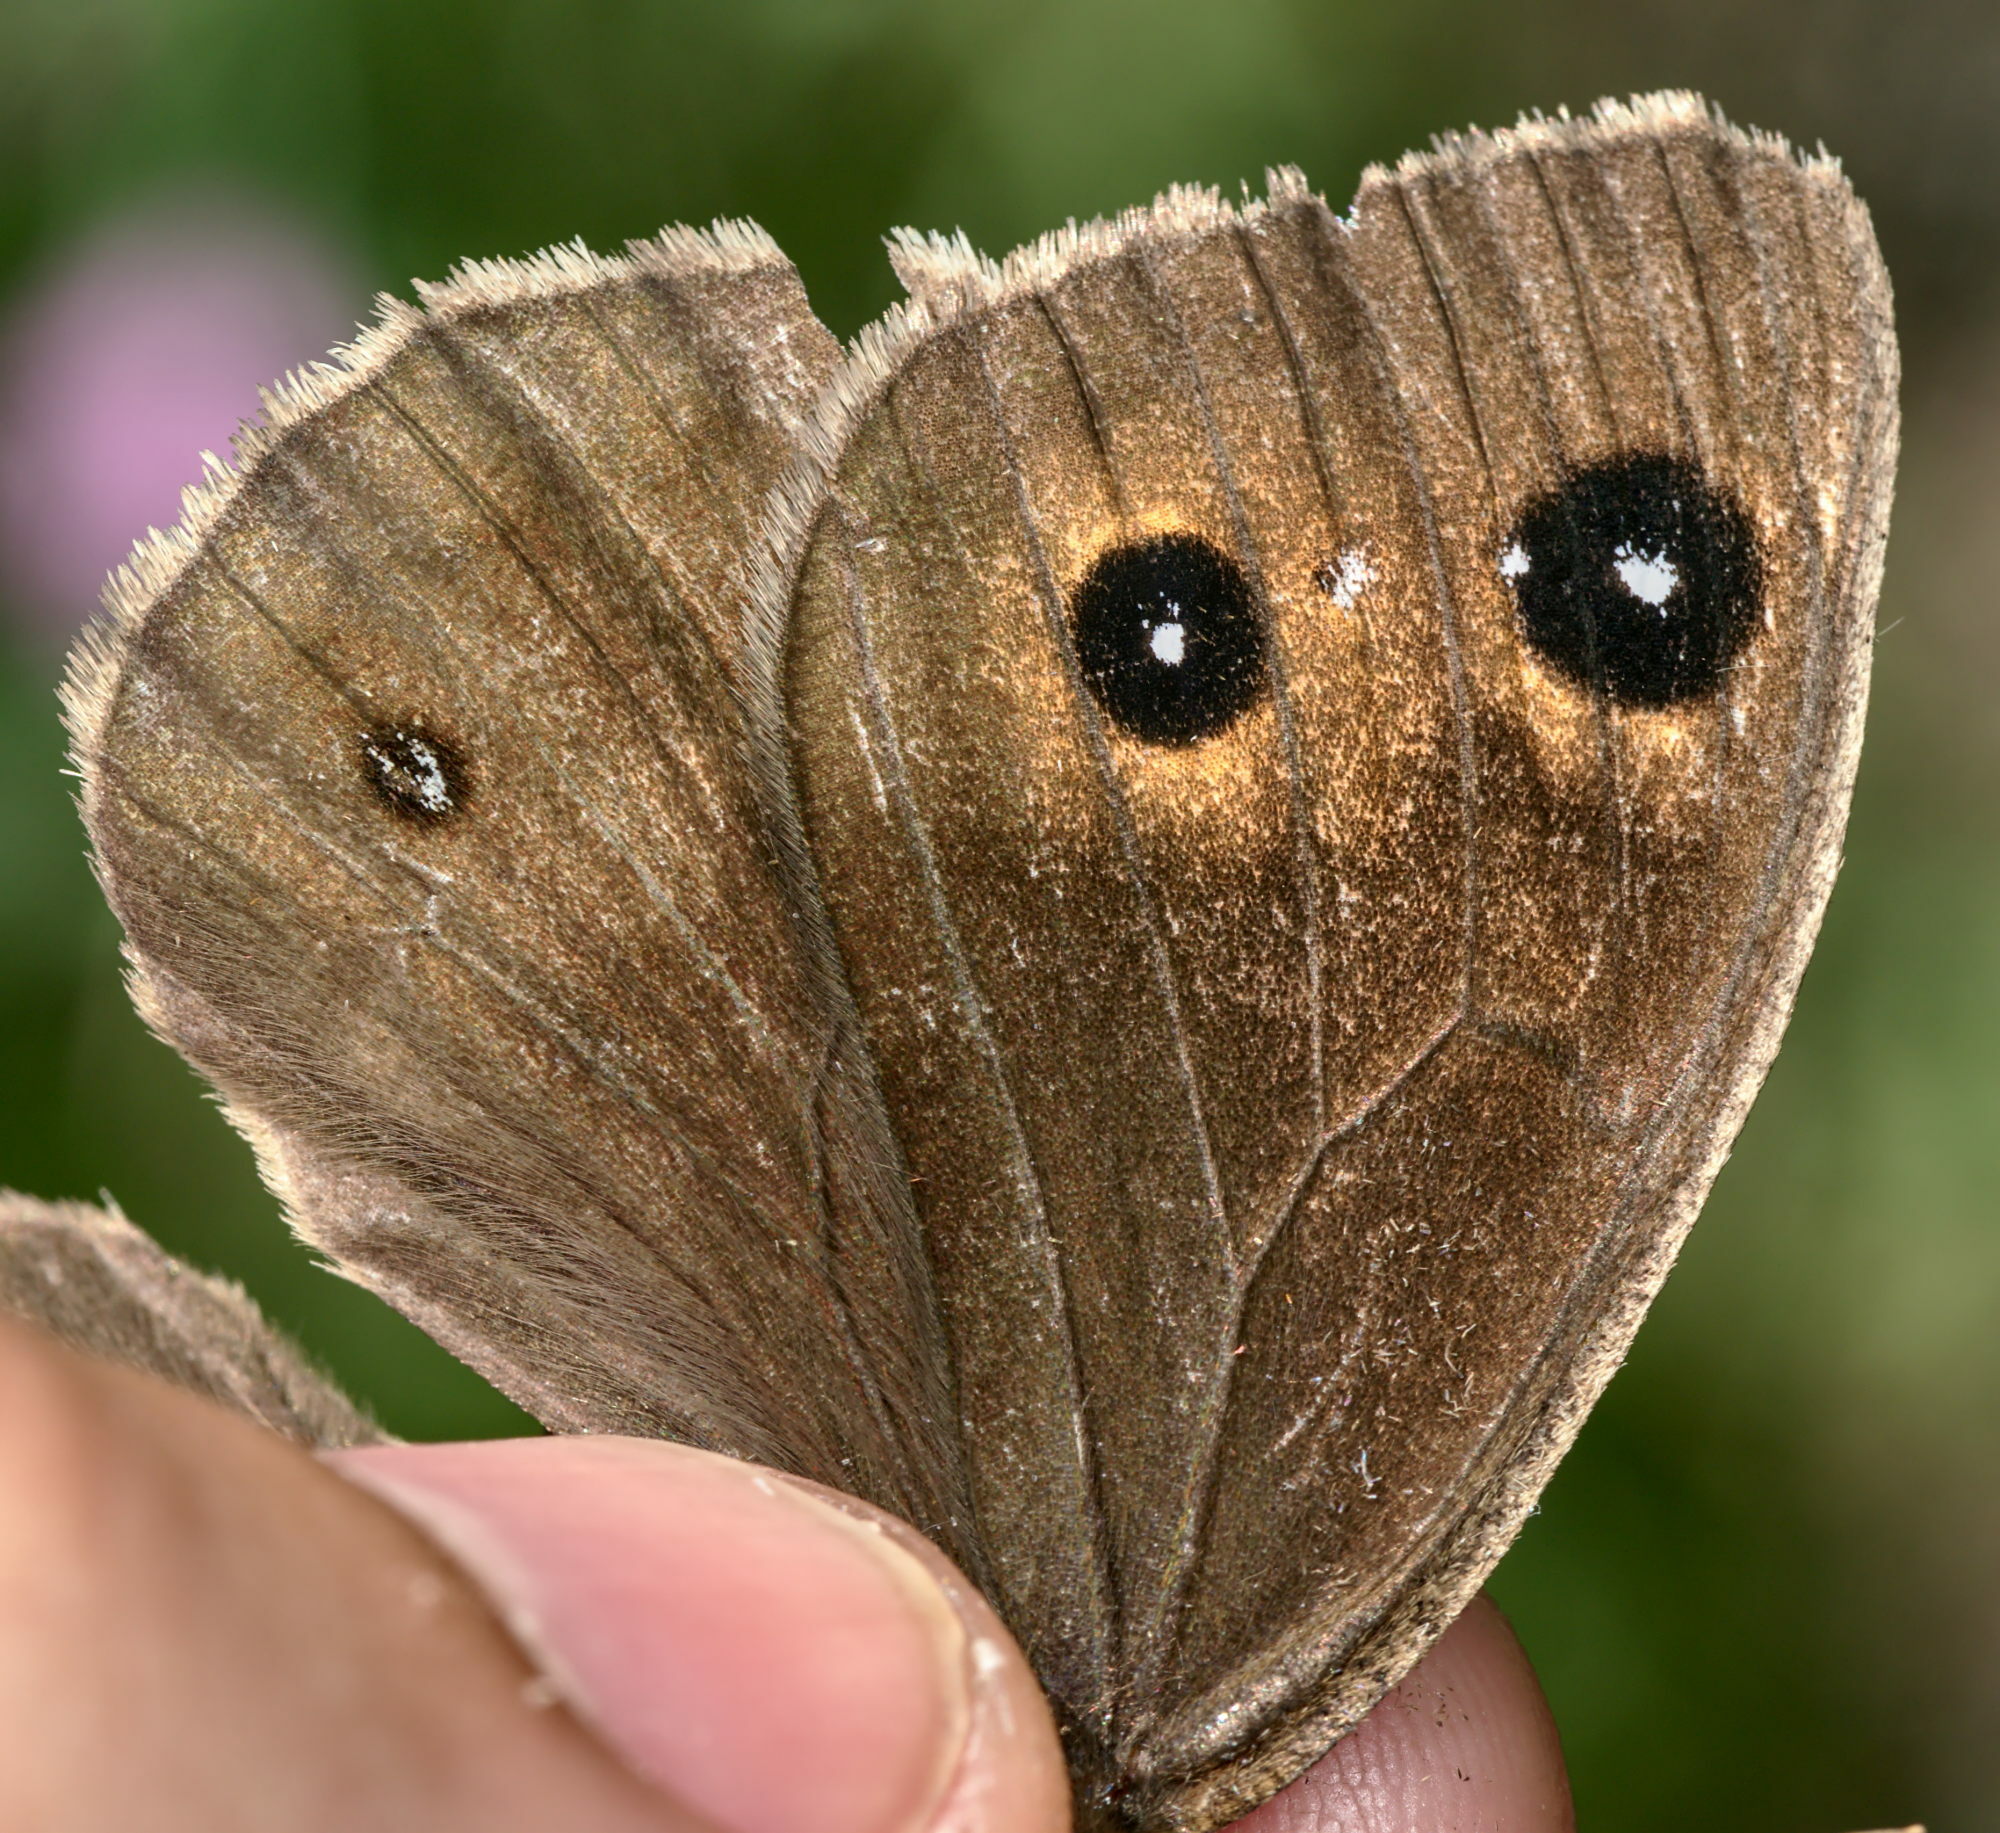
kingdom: Animalia
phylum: Arthropoda
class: Insecta
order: Lepidoptera
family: Nymphalidae
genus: Satyrus
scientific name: Satyrus ferula
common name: Great sooty satyr
